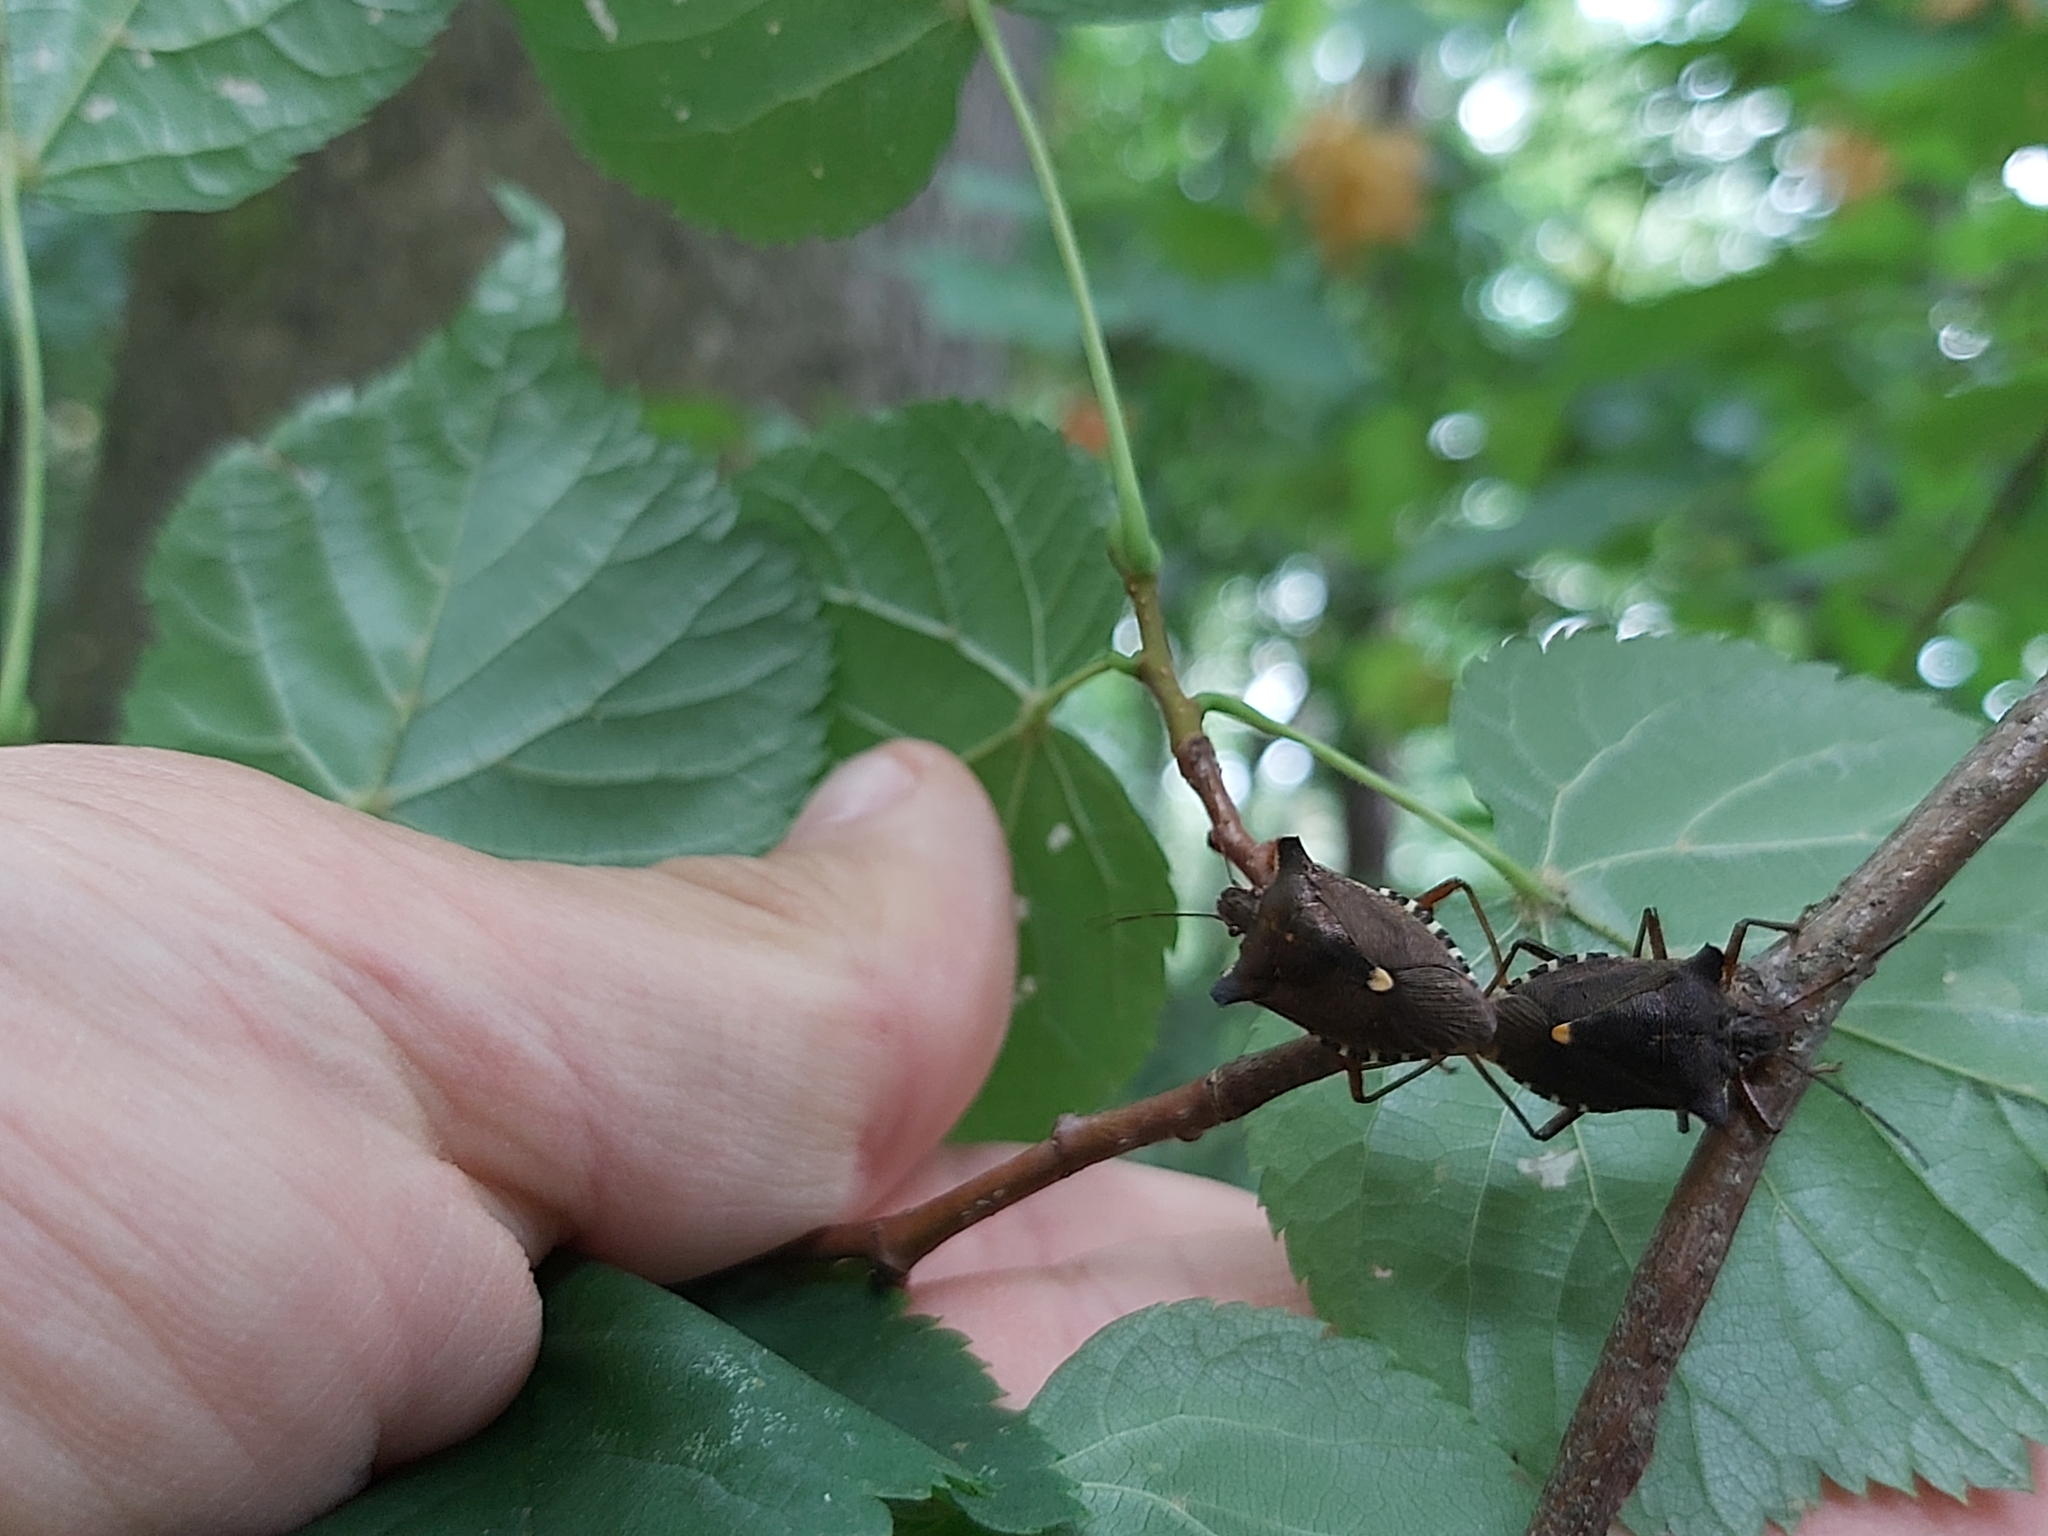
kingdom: Animalia
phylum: Arthropoda
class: Insecta
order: Hemiptera
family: Pentatomidae
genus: Pentatoma
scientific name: Pentatoma rufipes
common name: Forest bug
